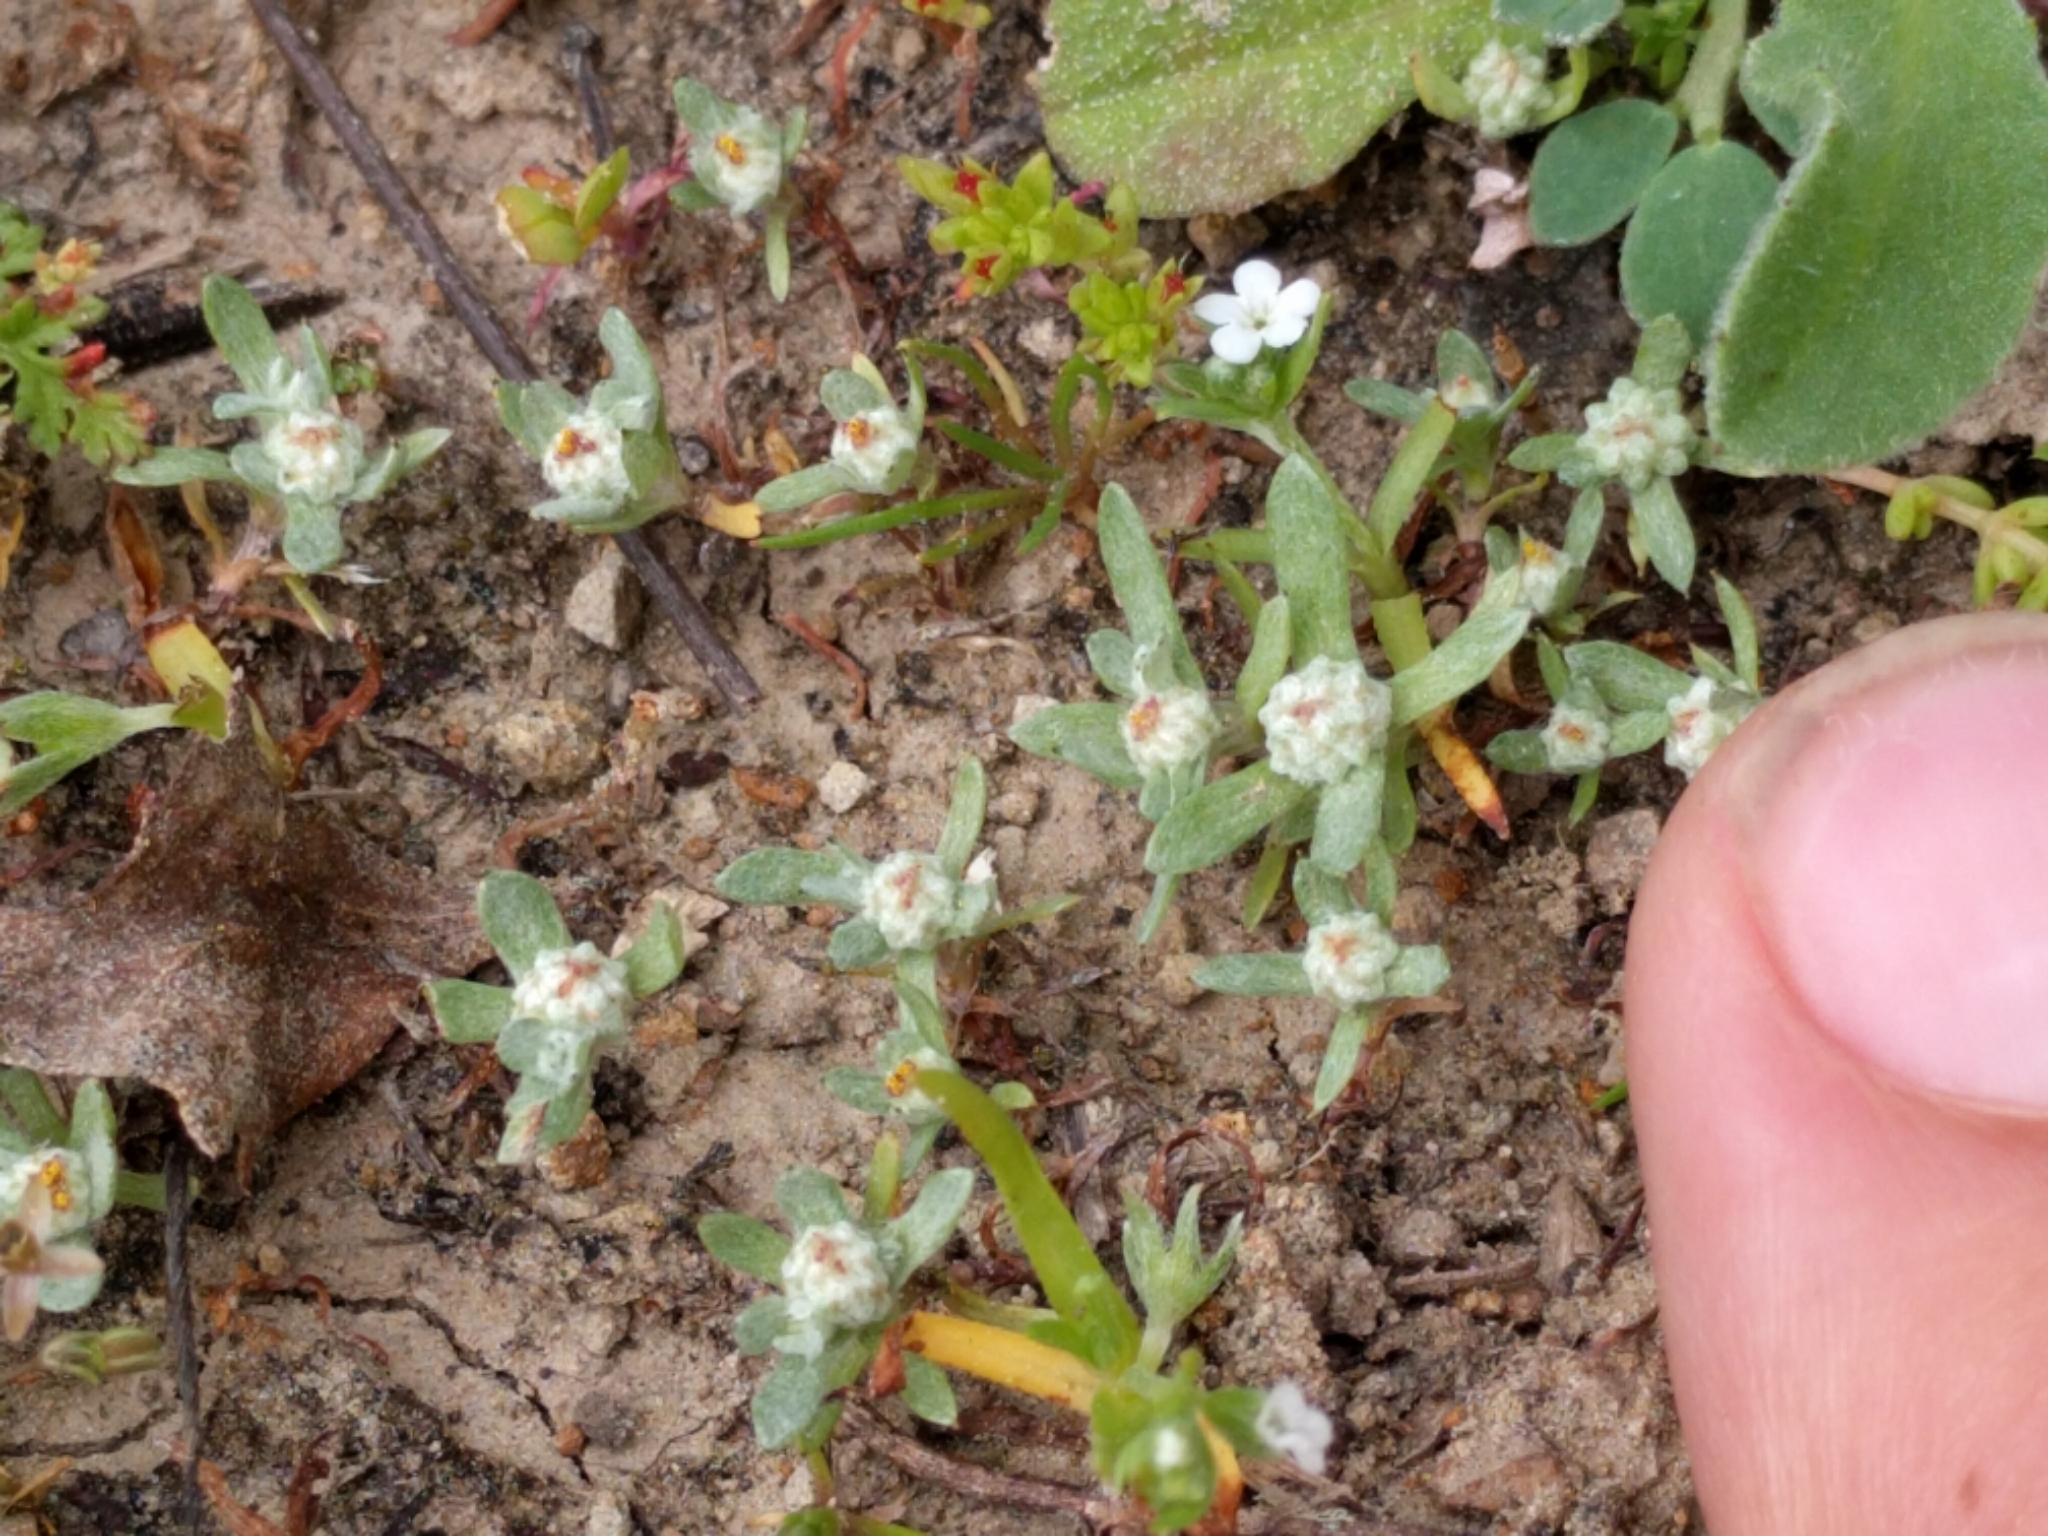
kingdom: Plantae
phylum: Tracheophyta
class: Magnoliopsida
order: Asterales
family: Asteraceae
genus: Psilocarphus
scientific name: Psilocarphus tenellus
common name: Slender woolly-marbles
